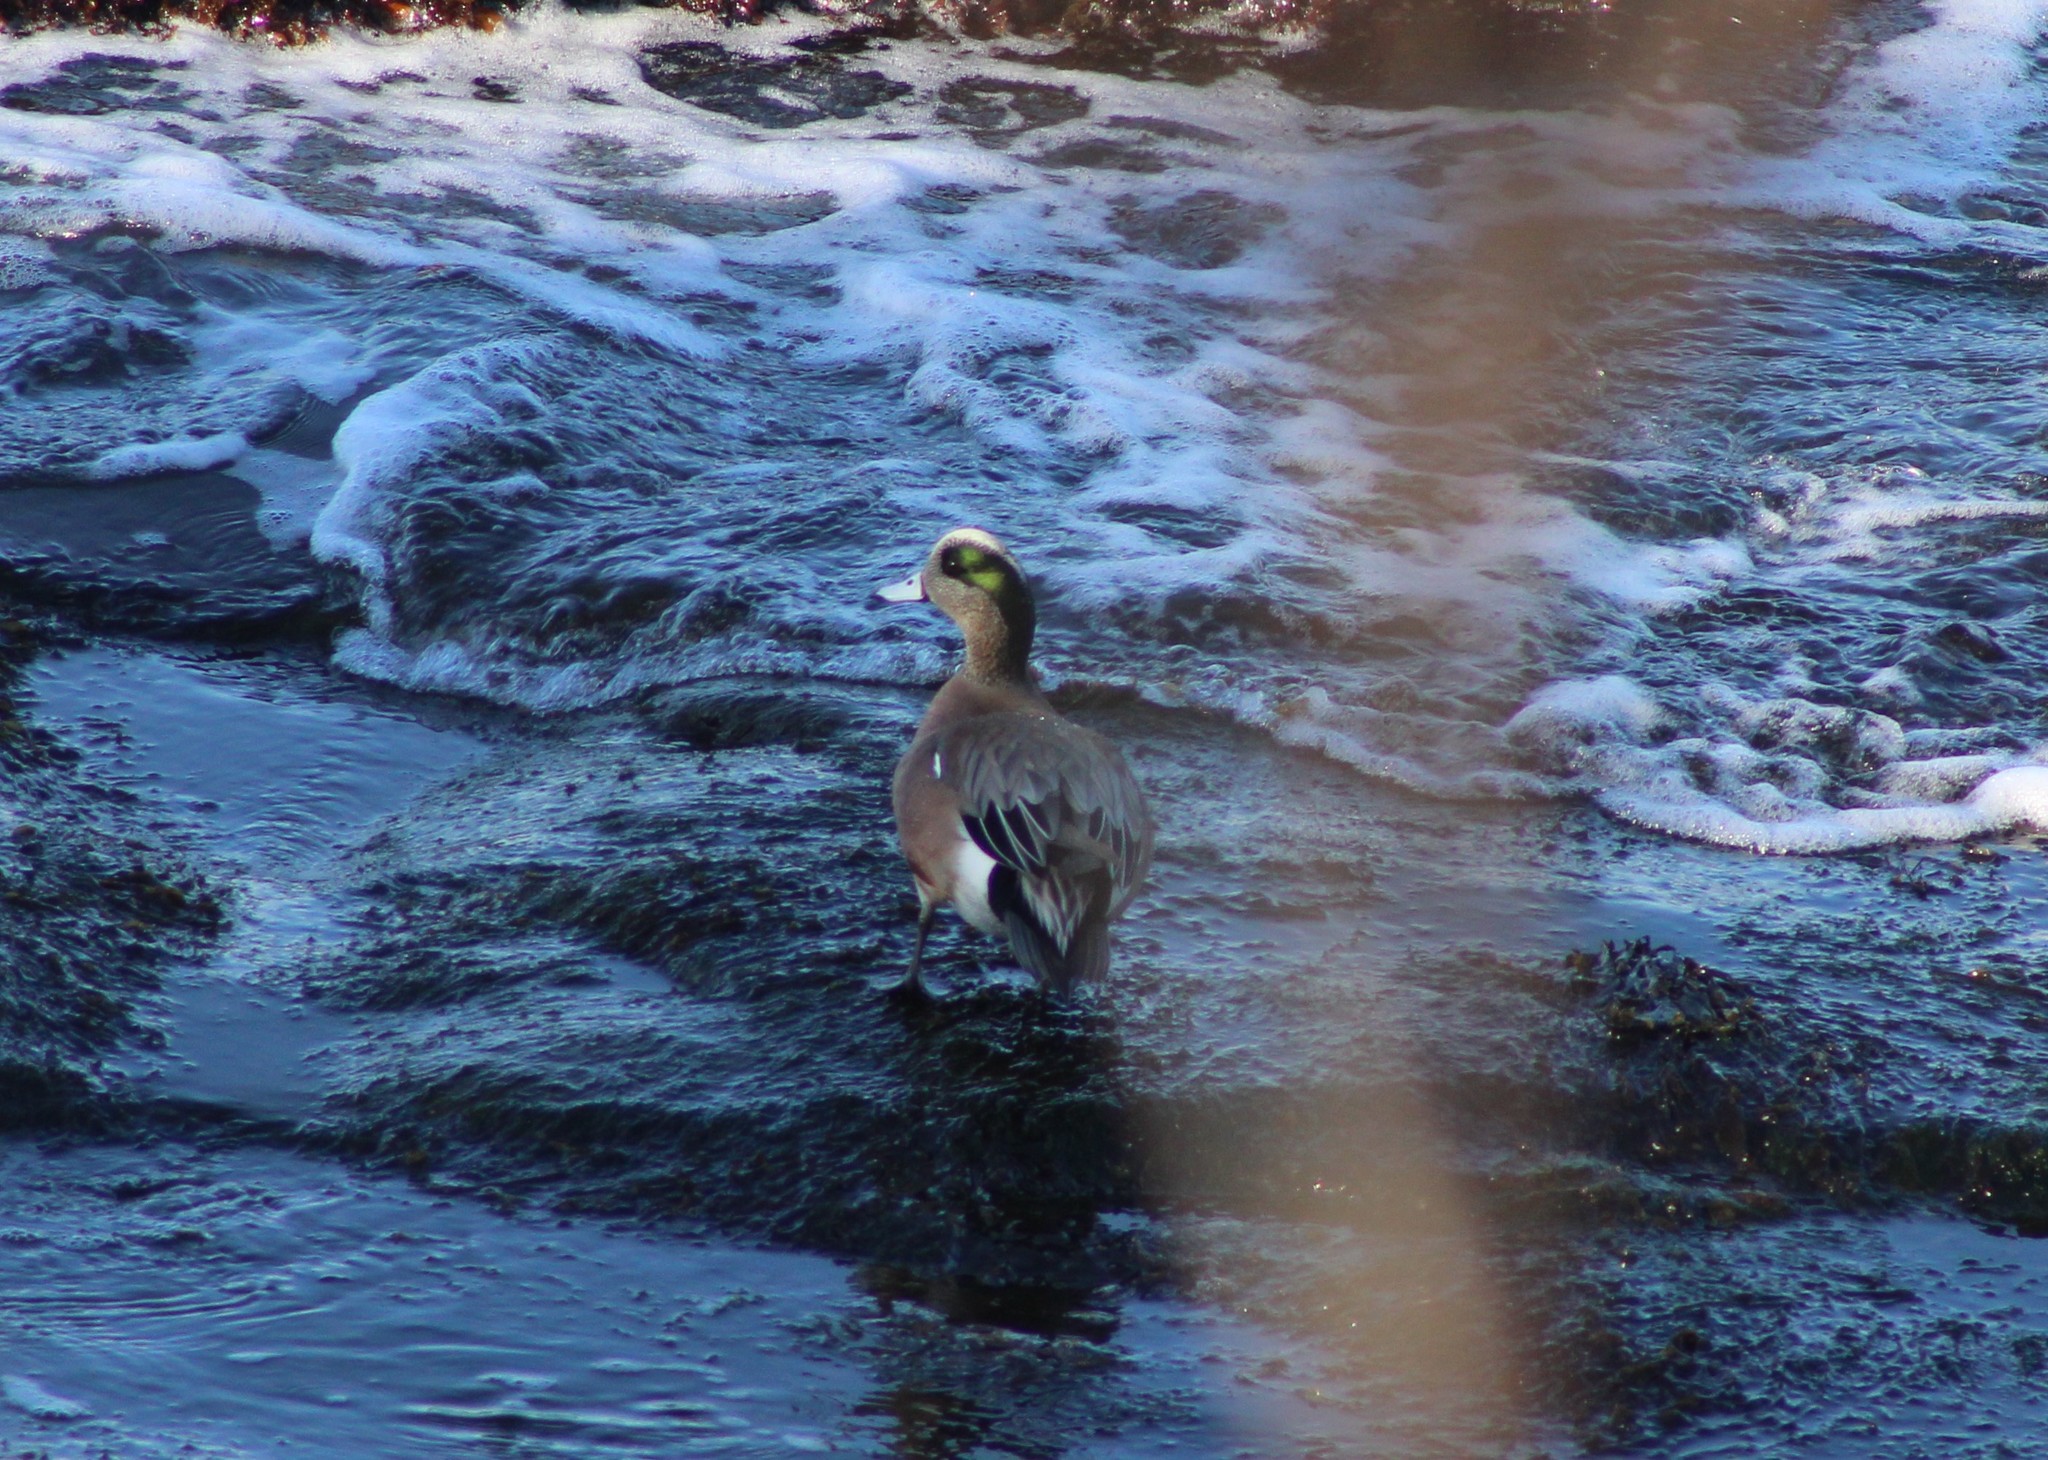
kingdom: Animalia
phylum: Chordata
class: Aves
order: Anseriformes
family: Anatidae
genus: Mareca
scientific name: Mareca americana
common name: American wigeon
